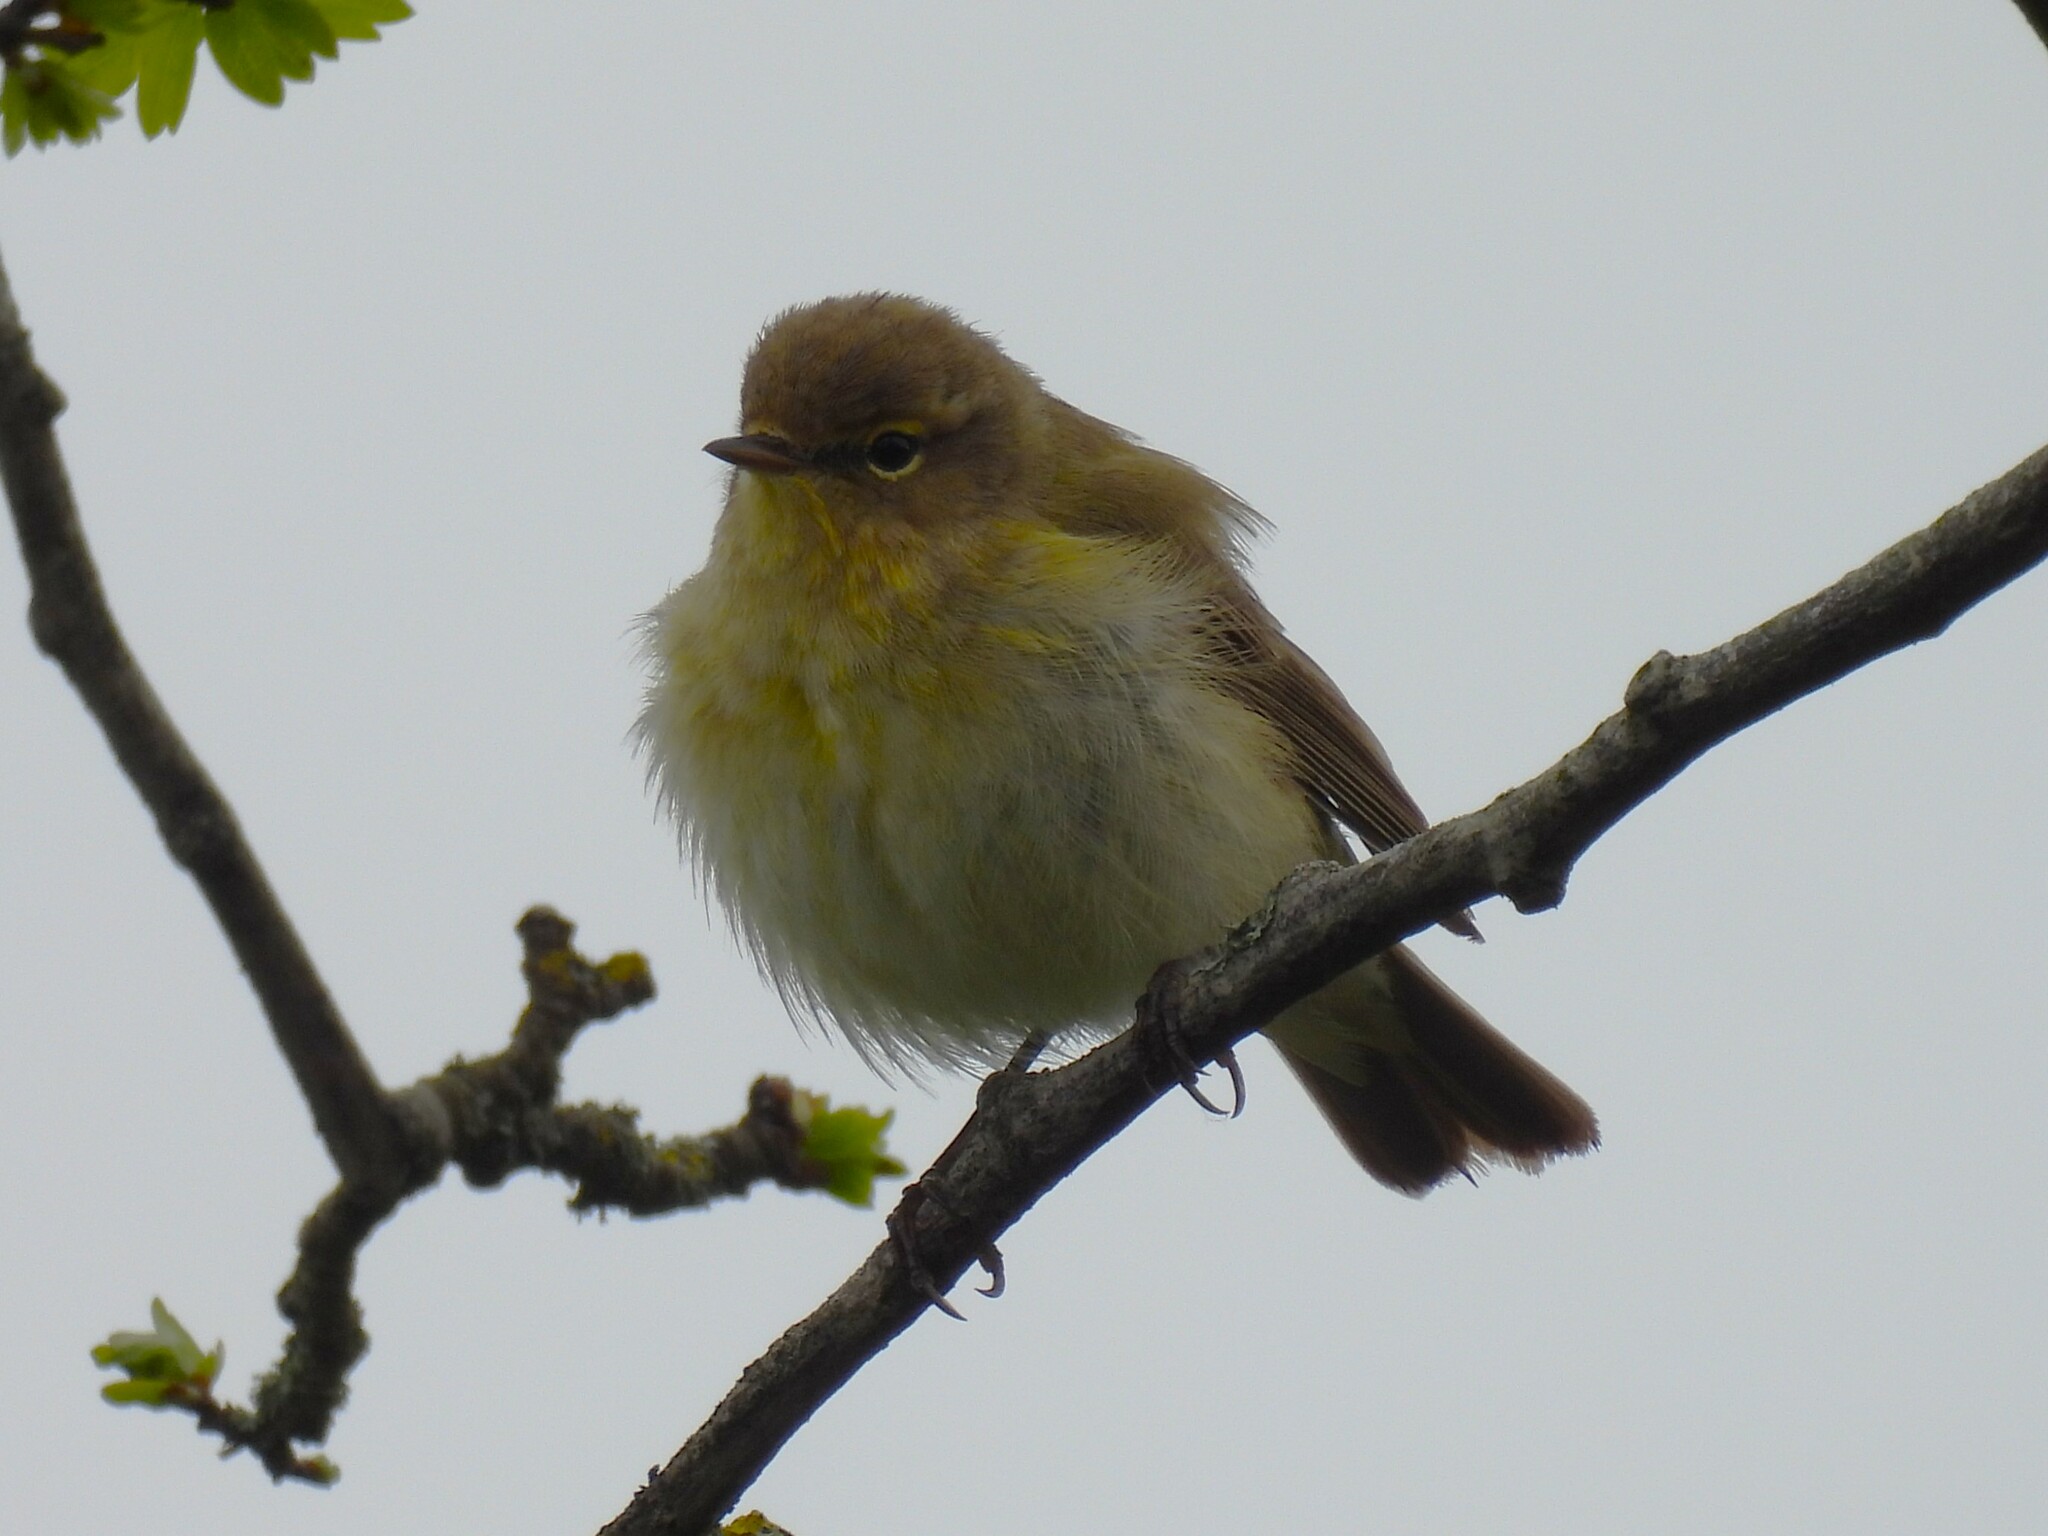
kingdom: Animalia
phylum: Chordata
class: Aves
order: Passeriformes
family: Phylloscopidae
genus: Phylloscopus
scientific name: Phylloscopus collybita
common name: Common chiffchaff
